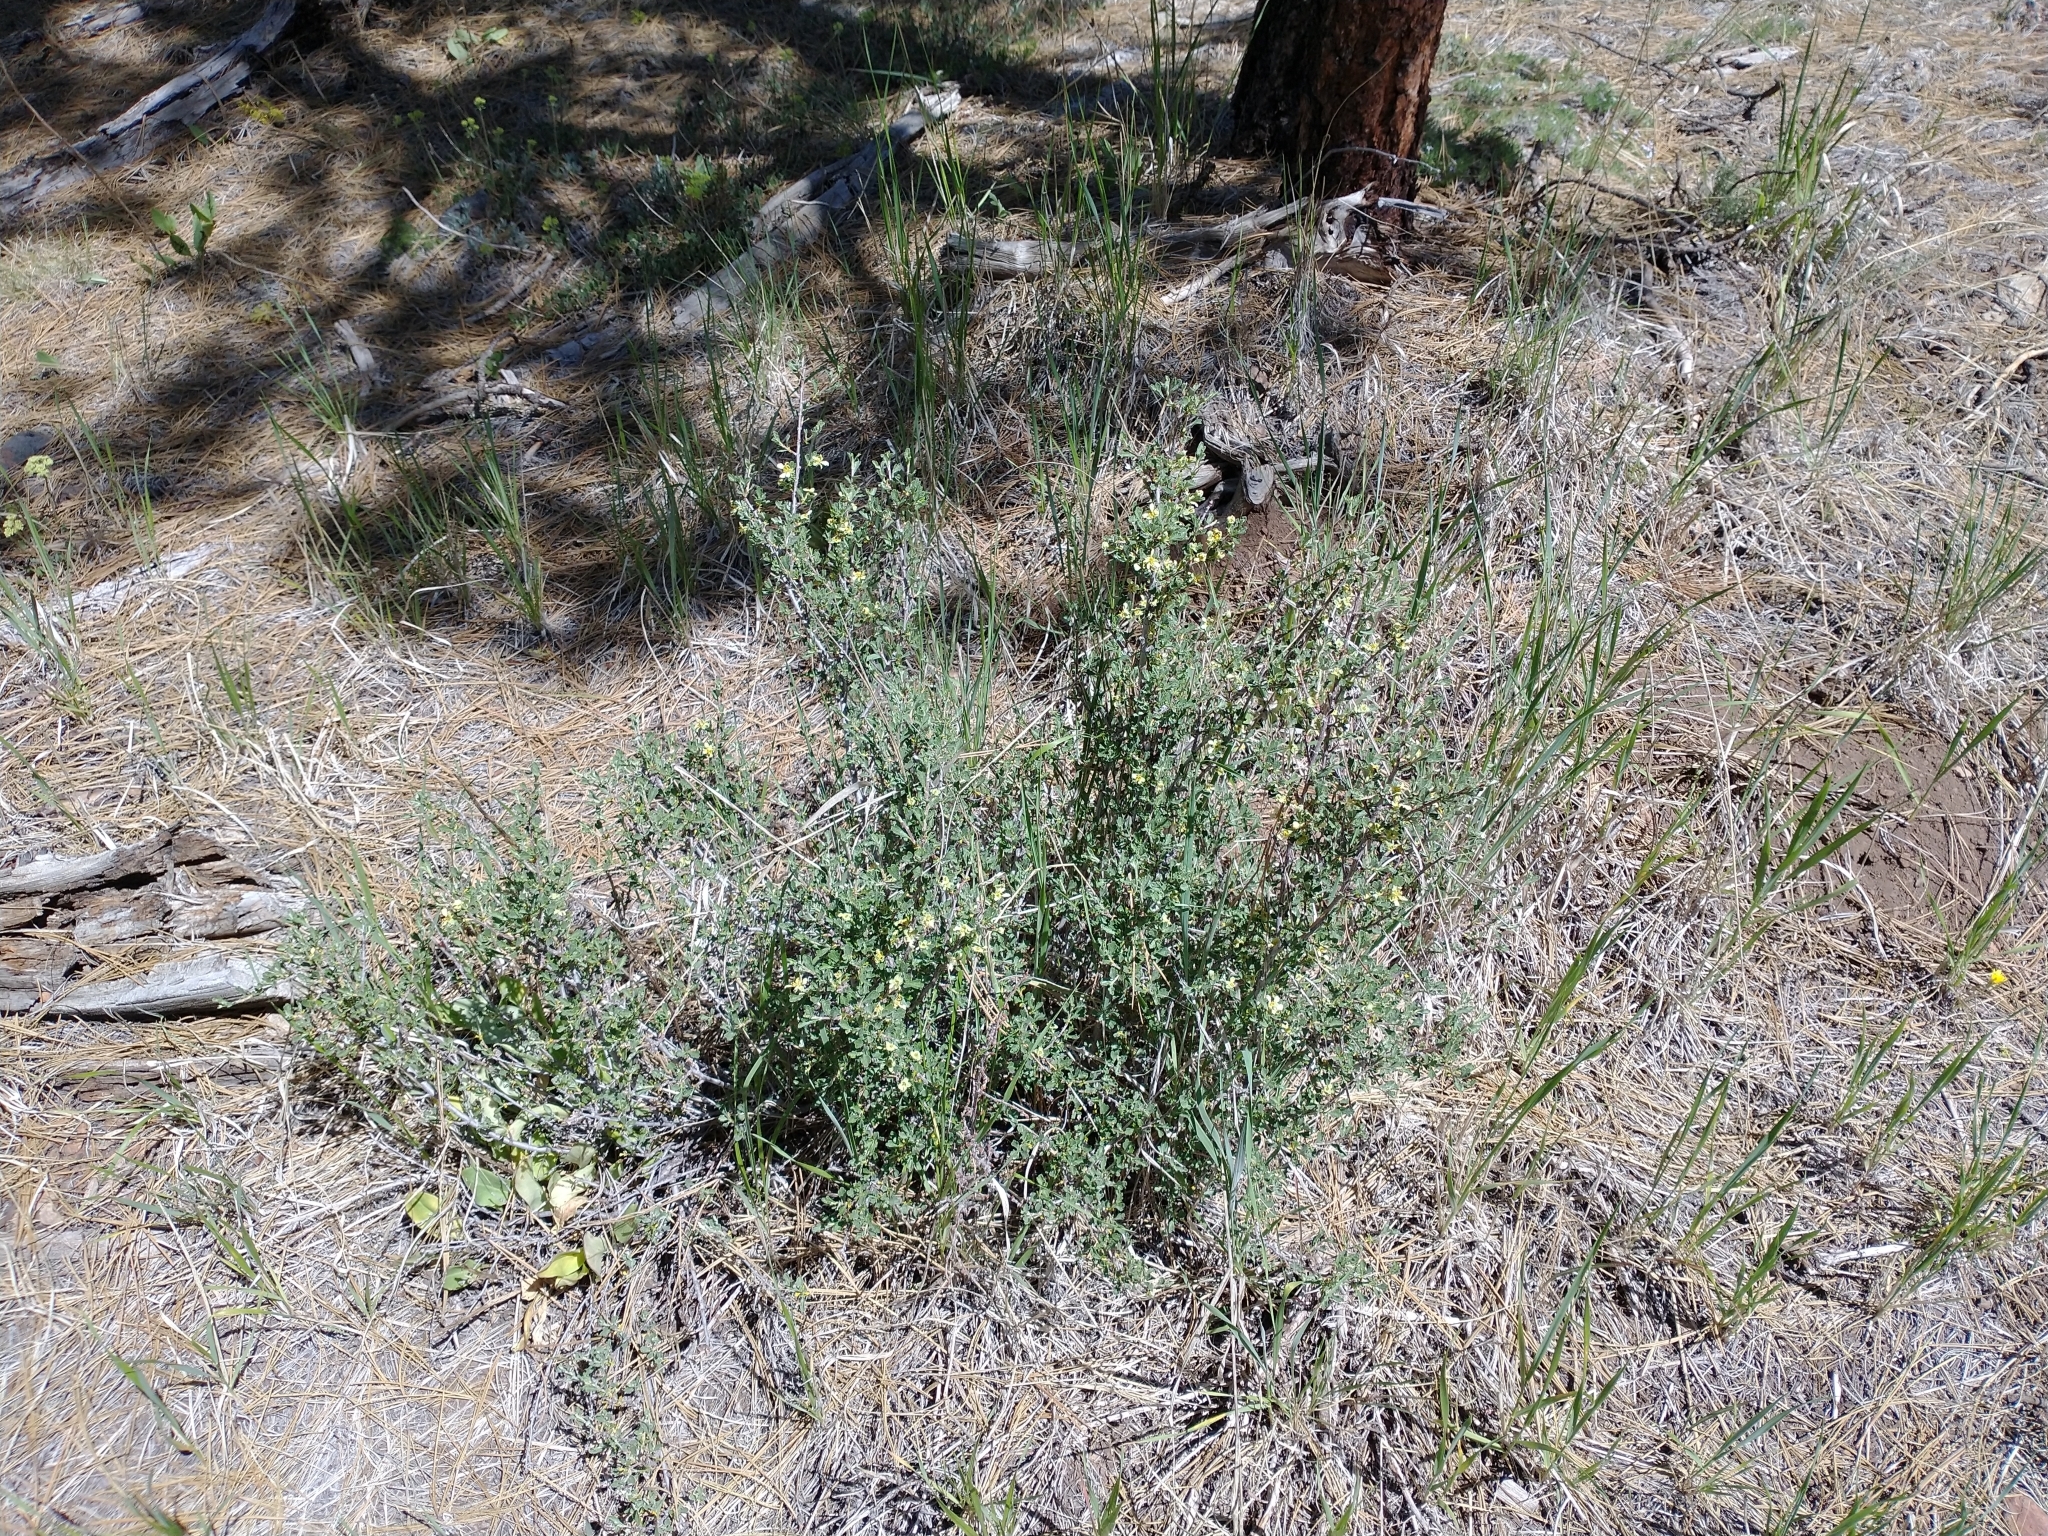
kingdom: Plantae
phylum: Tracheophyta
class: Magnoliopsida
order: Rosales
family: Rosaceae
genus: Purshia
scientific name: Purshia tridentata
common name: Antelope bitterbrush
